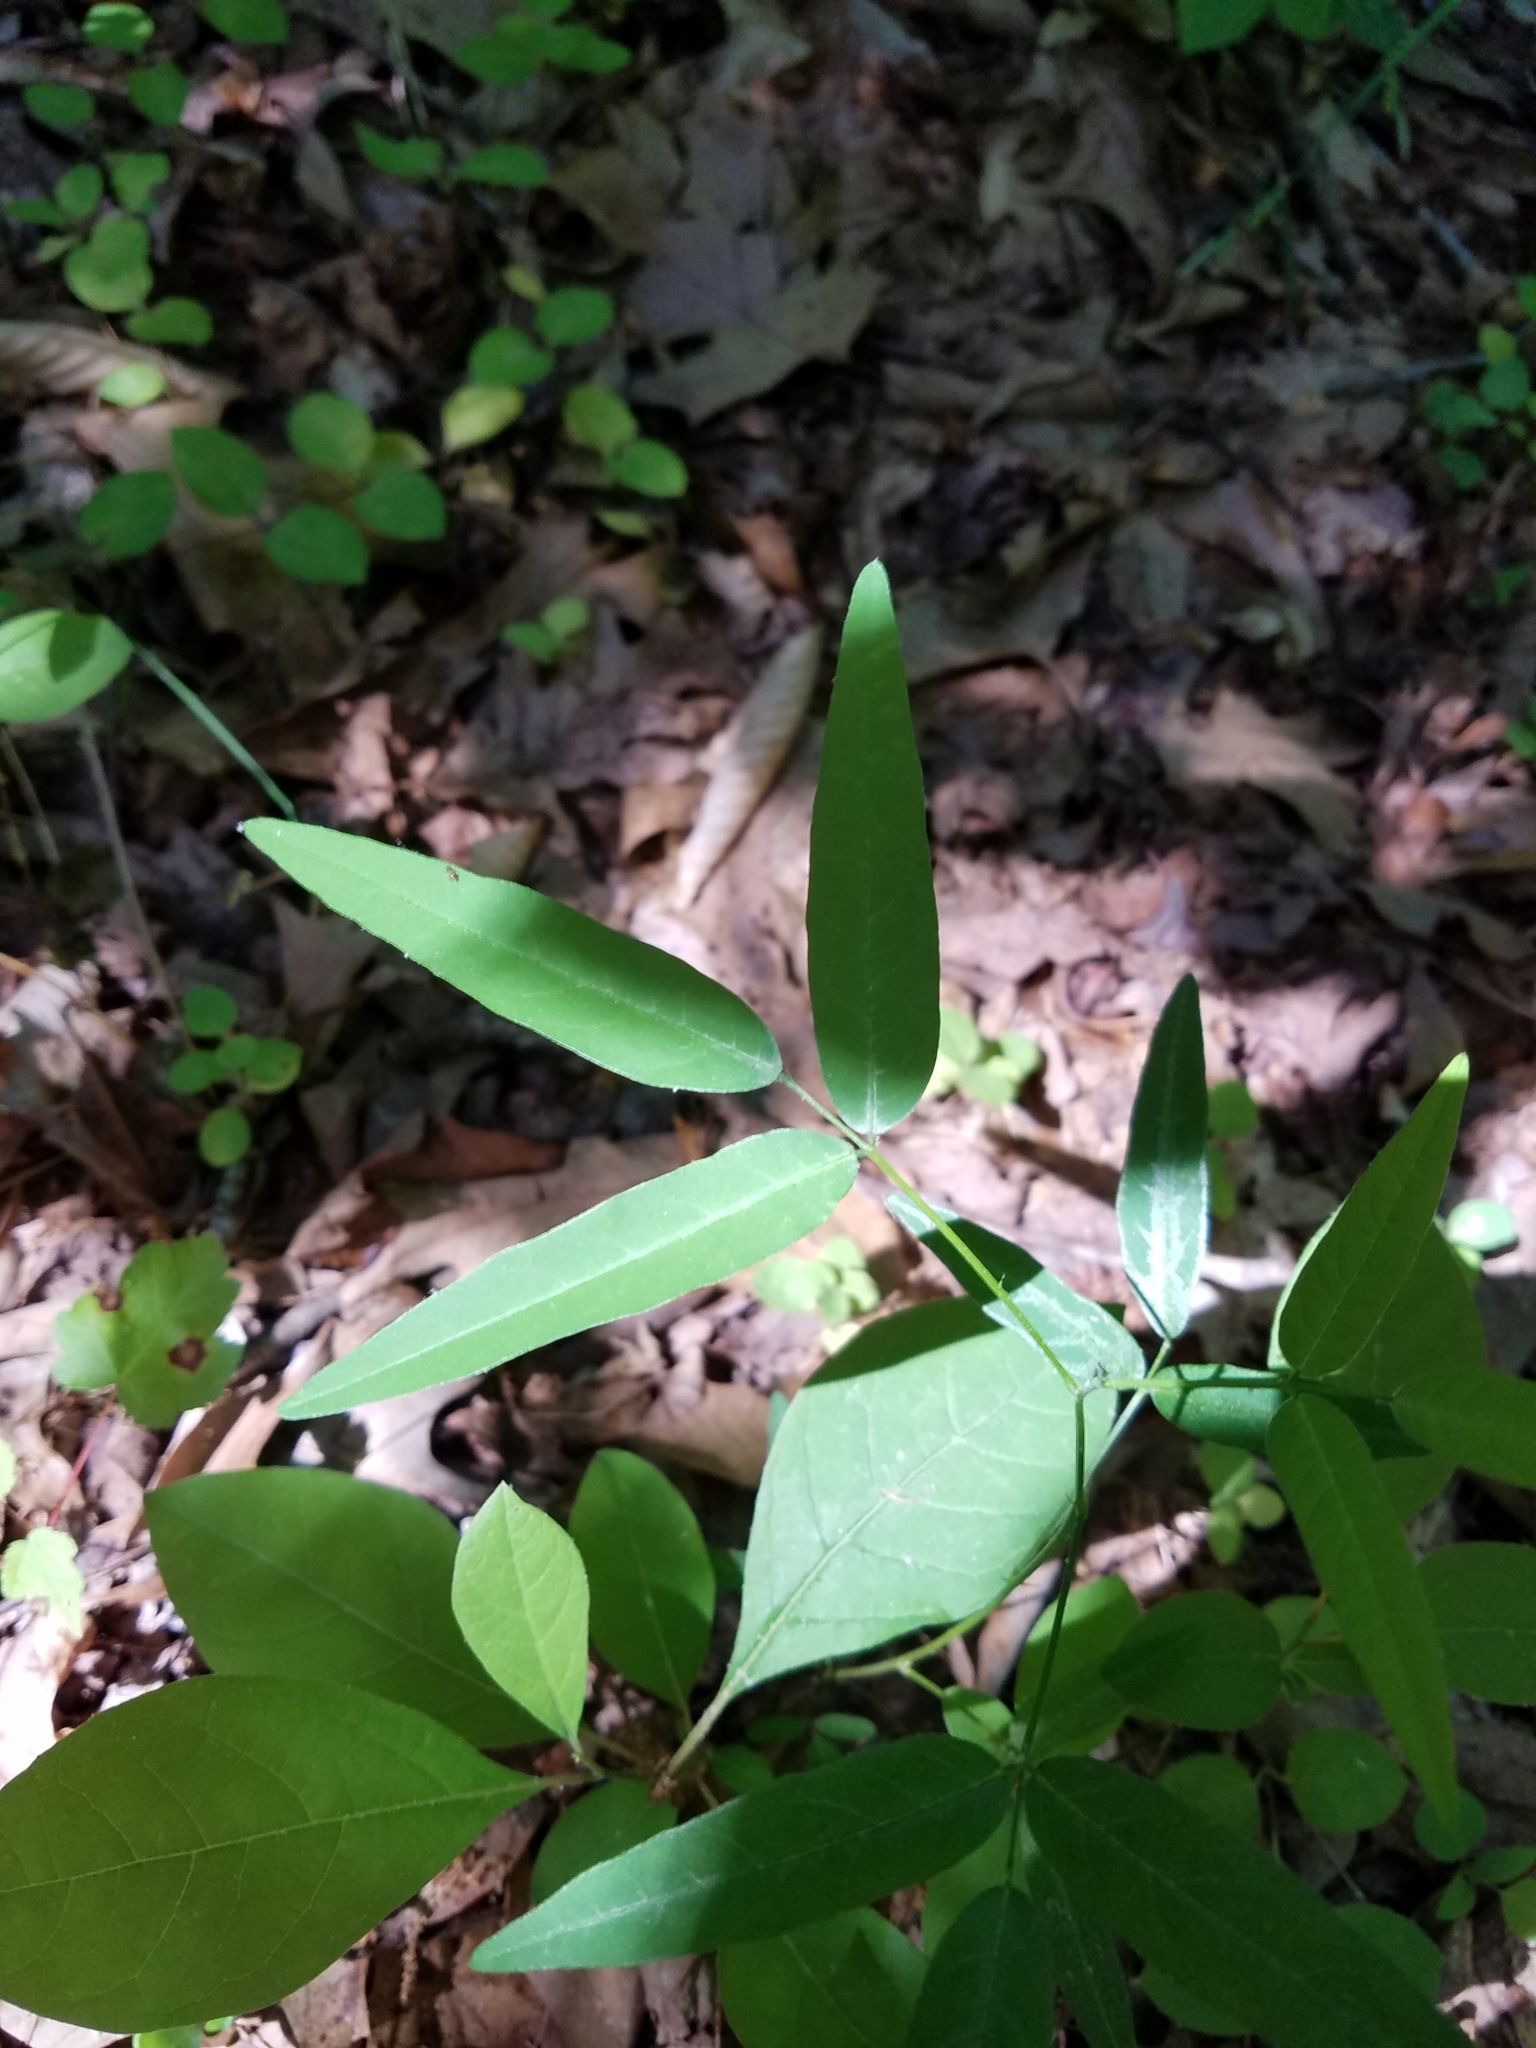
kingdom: Plantae
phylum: Tracheophyta
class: Magnoliopsida
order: Fabales
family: Fabaceae
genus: Desmodium
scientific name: Desmodium paniculatum
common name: Panicled tick-clover
